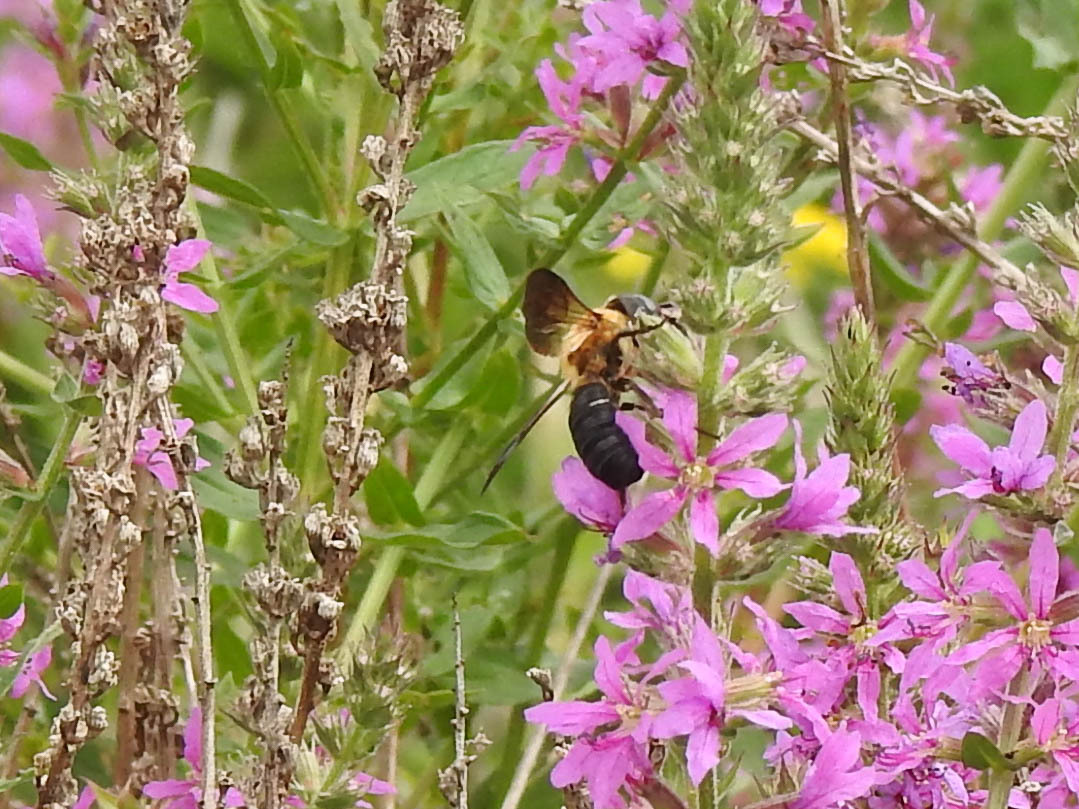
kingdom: Animalia
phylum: Arthropoda
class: Insecta
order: Hymenoptera
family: Megachilidae
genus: Megachile
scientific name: Megachile sculpturalis
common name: Sculptured resin bee
